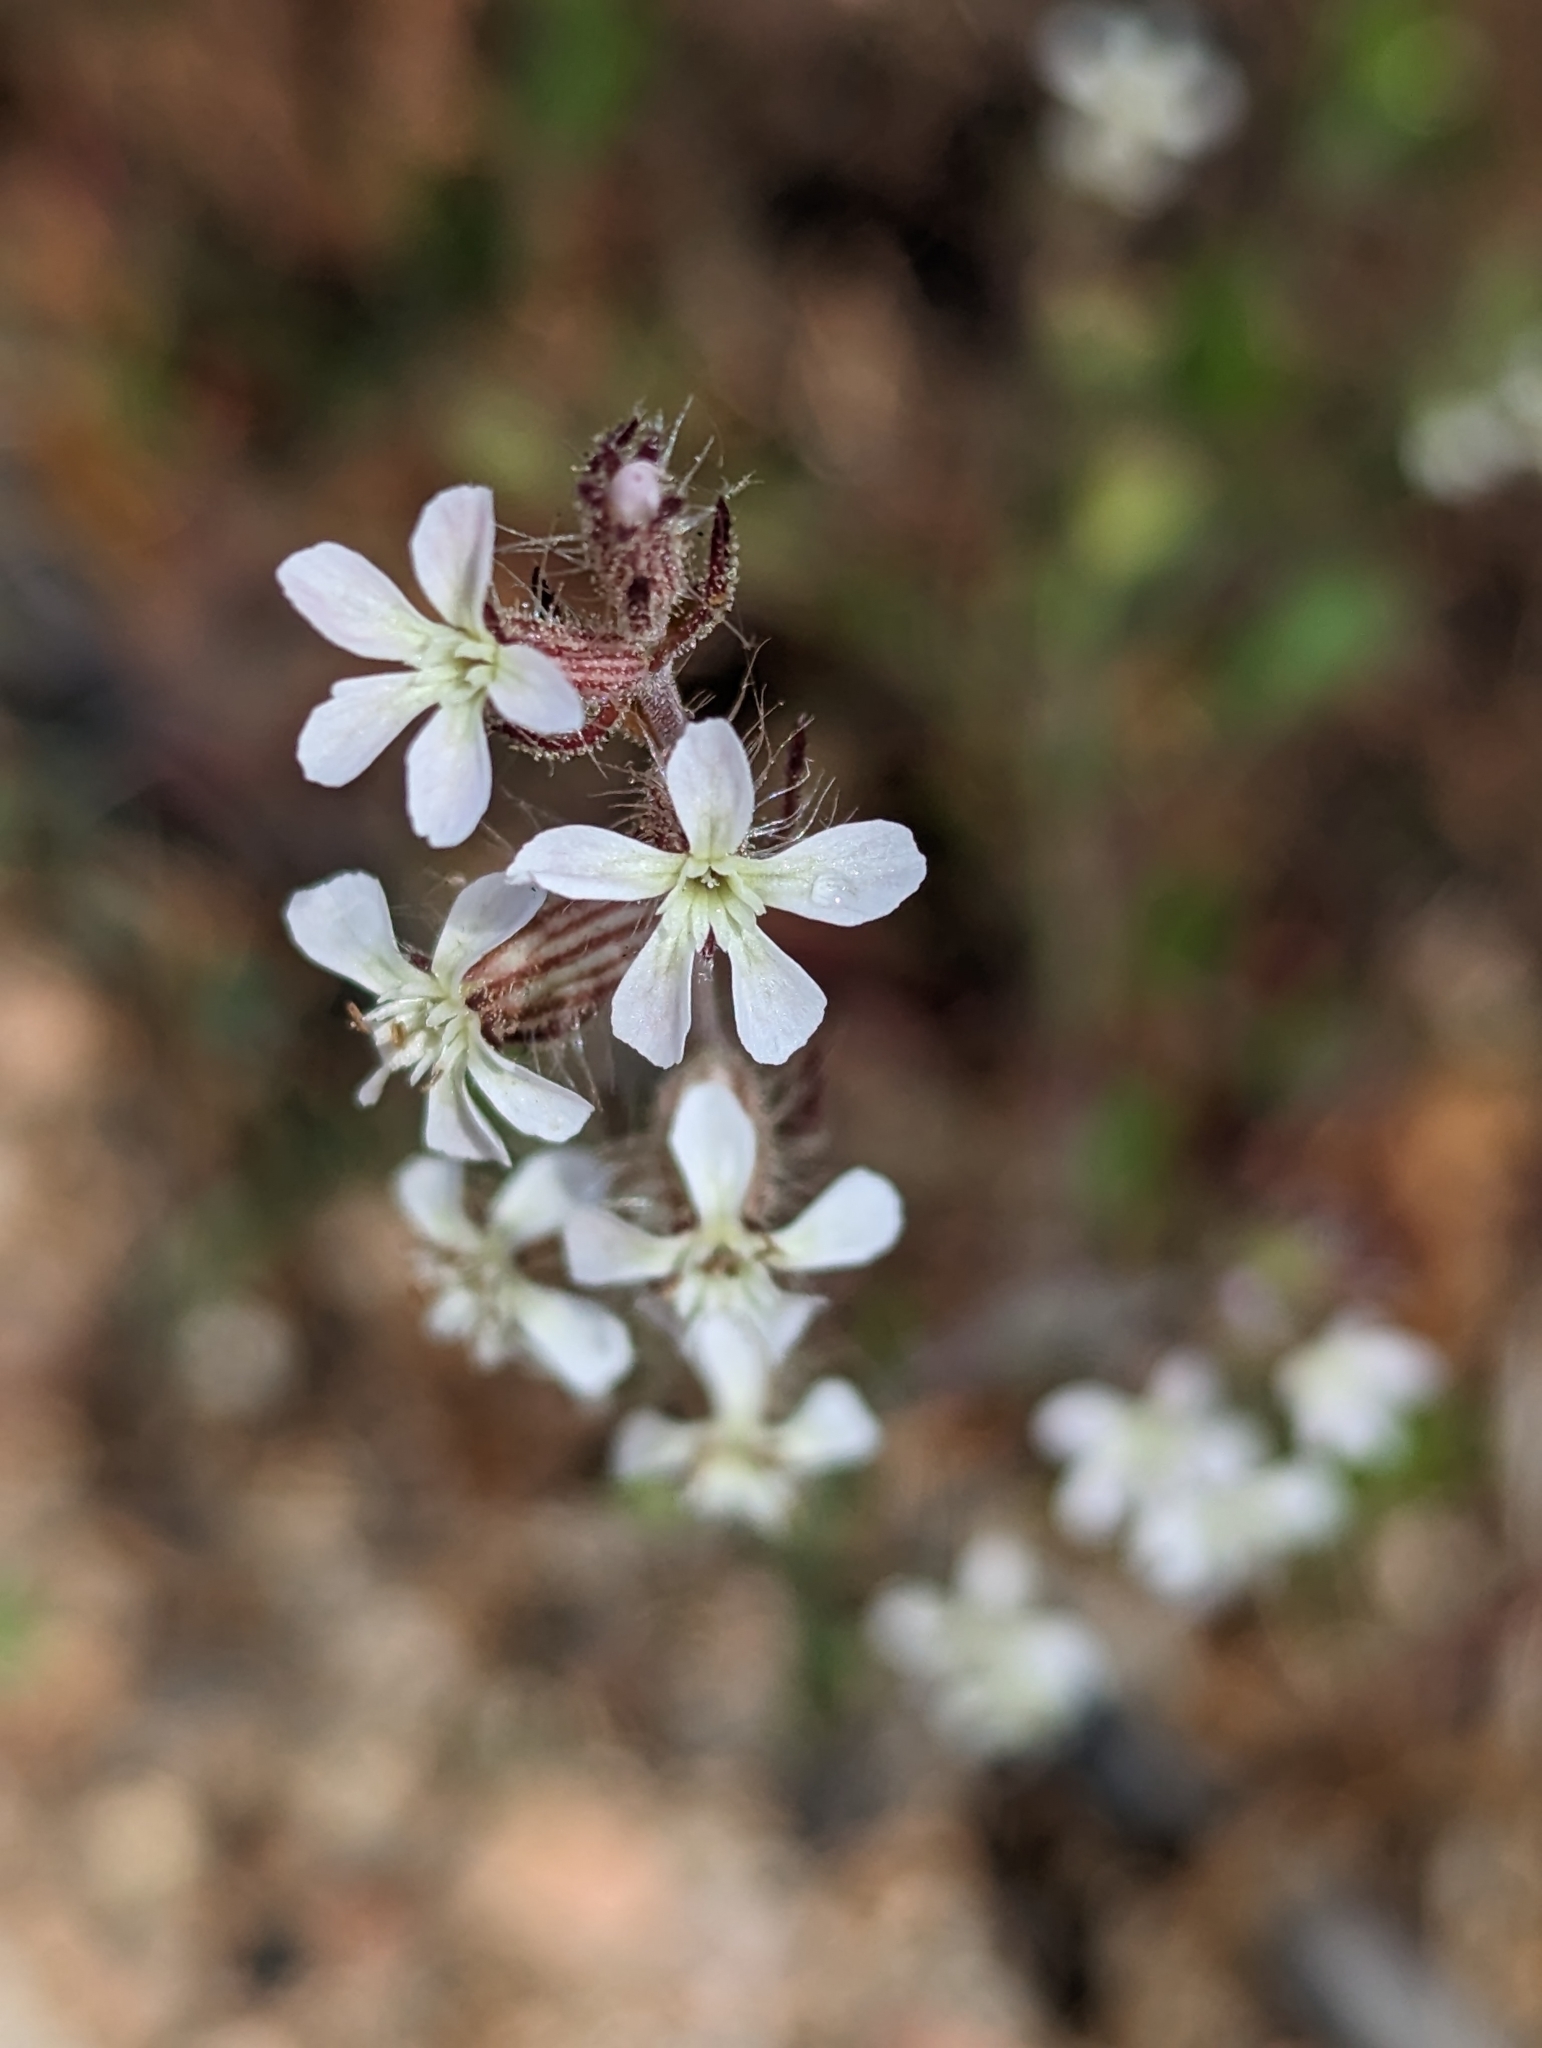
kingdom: Plantae
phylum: Tracheophyta
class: Magnoliopsida
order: Caryophyllales
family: Caryophyllaceae
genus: Silene
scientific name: Silene gallica
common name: Small-flowered catchfly
